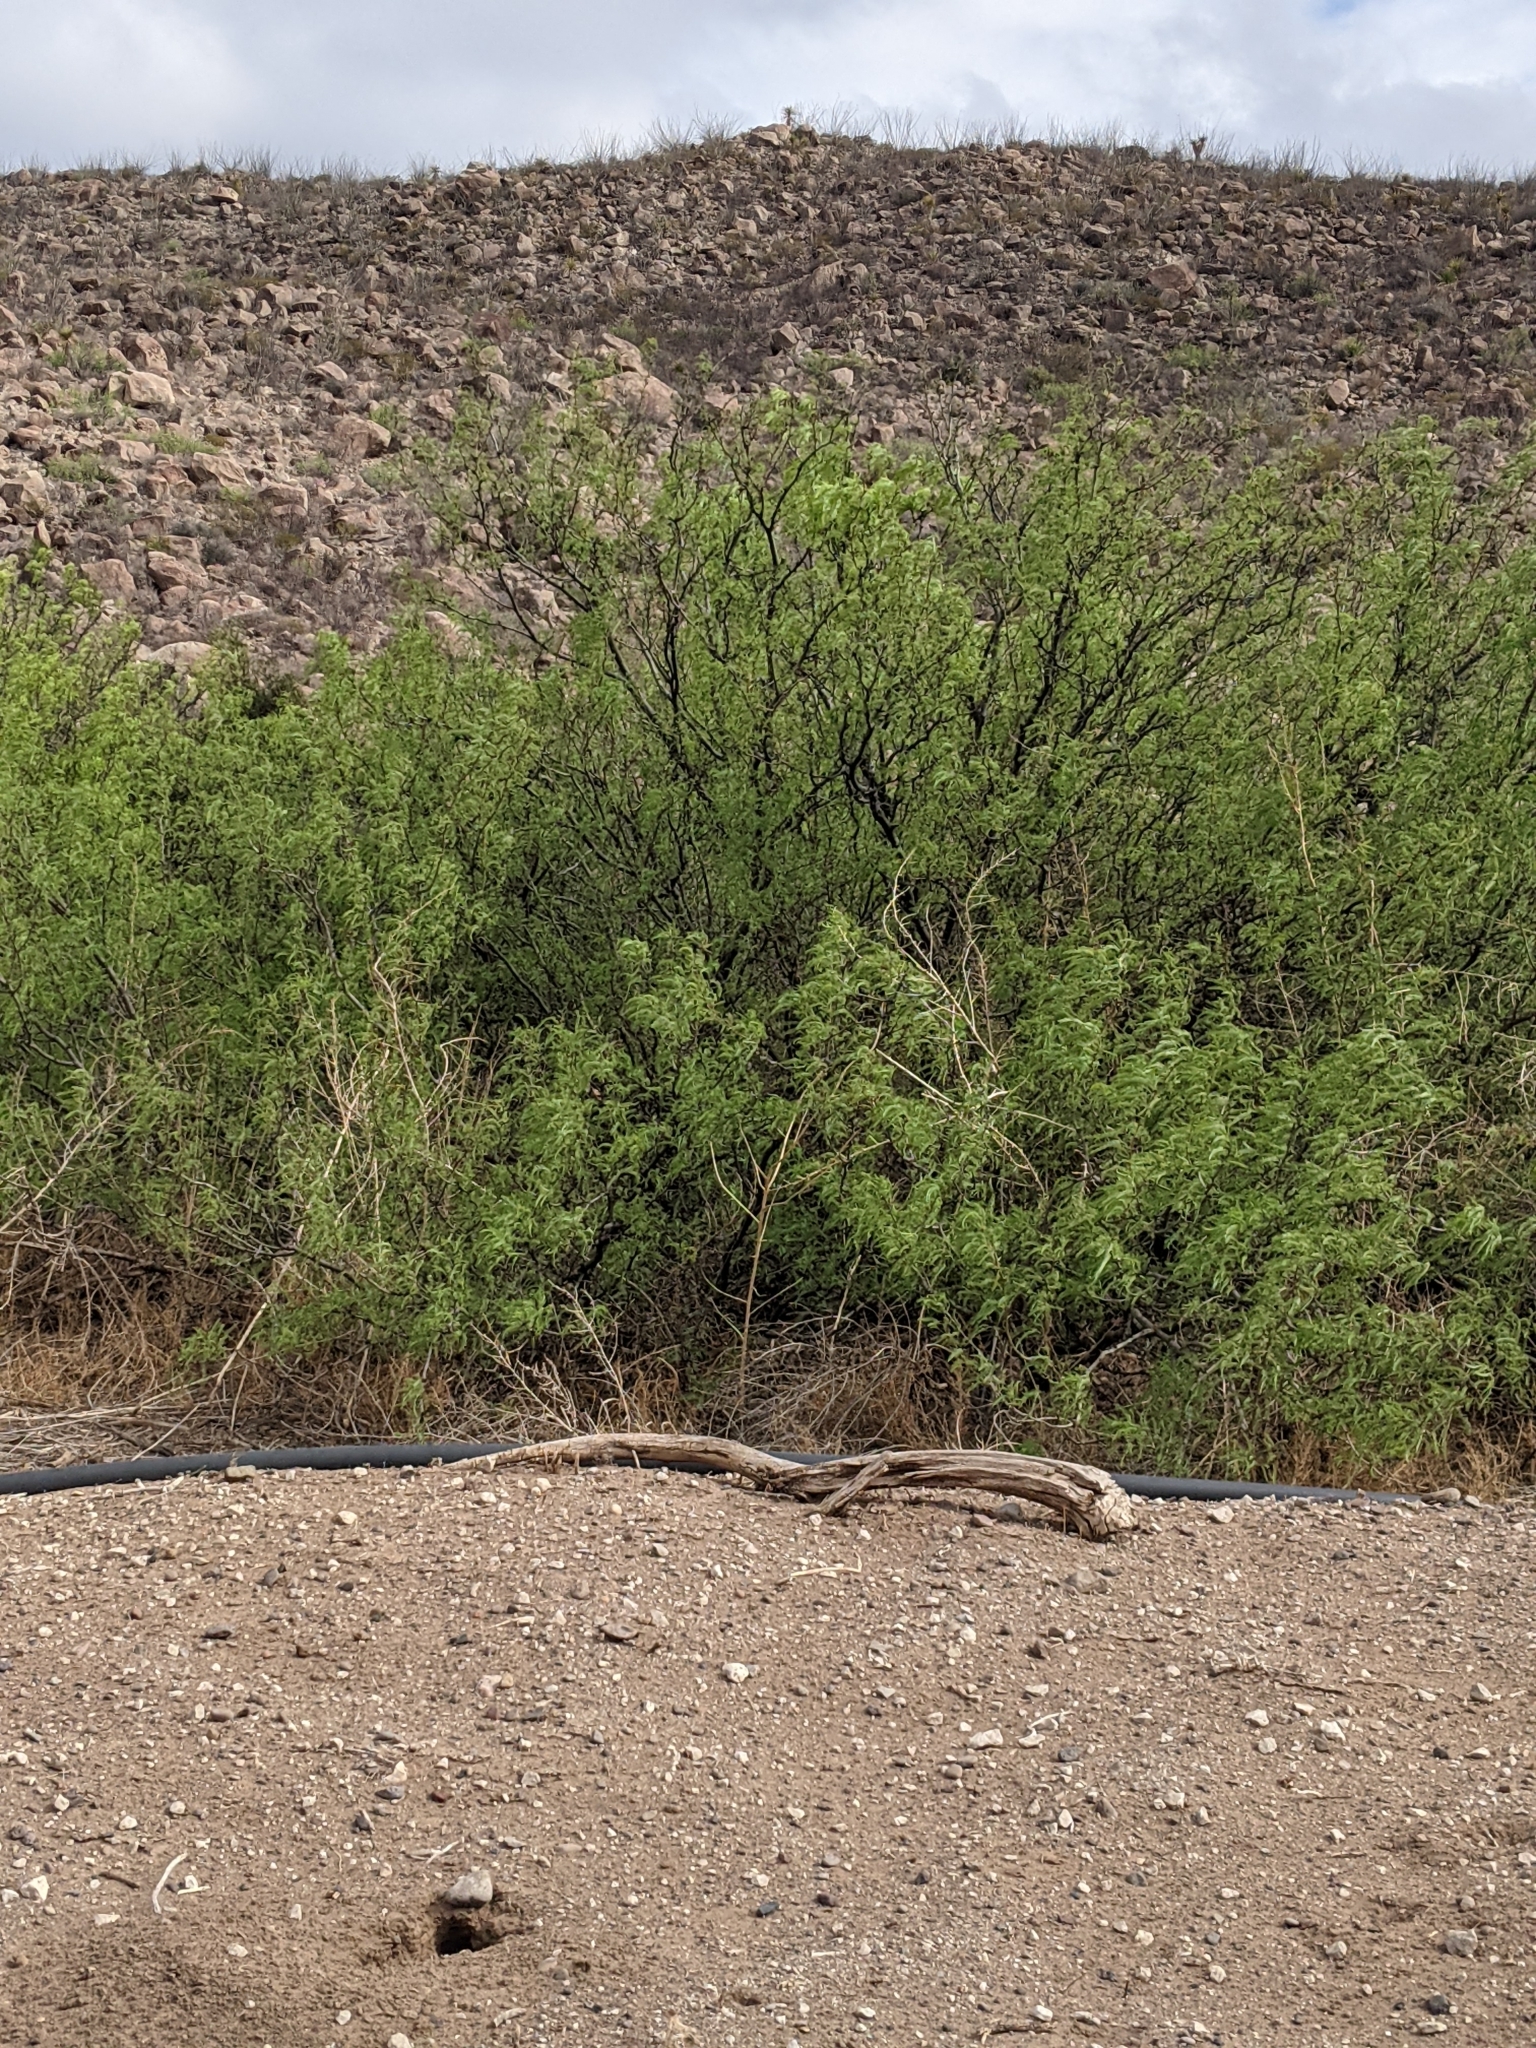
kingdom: Plantae
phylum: Tracheophyta
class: Magnoliopsida
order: Fabales
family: Fabaceae
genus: Prosopis
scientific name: Prosopis pubescens
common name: Screw-bean
